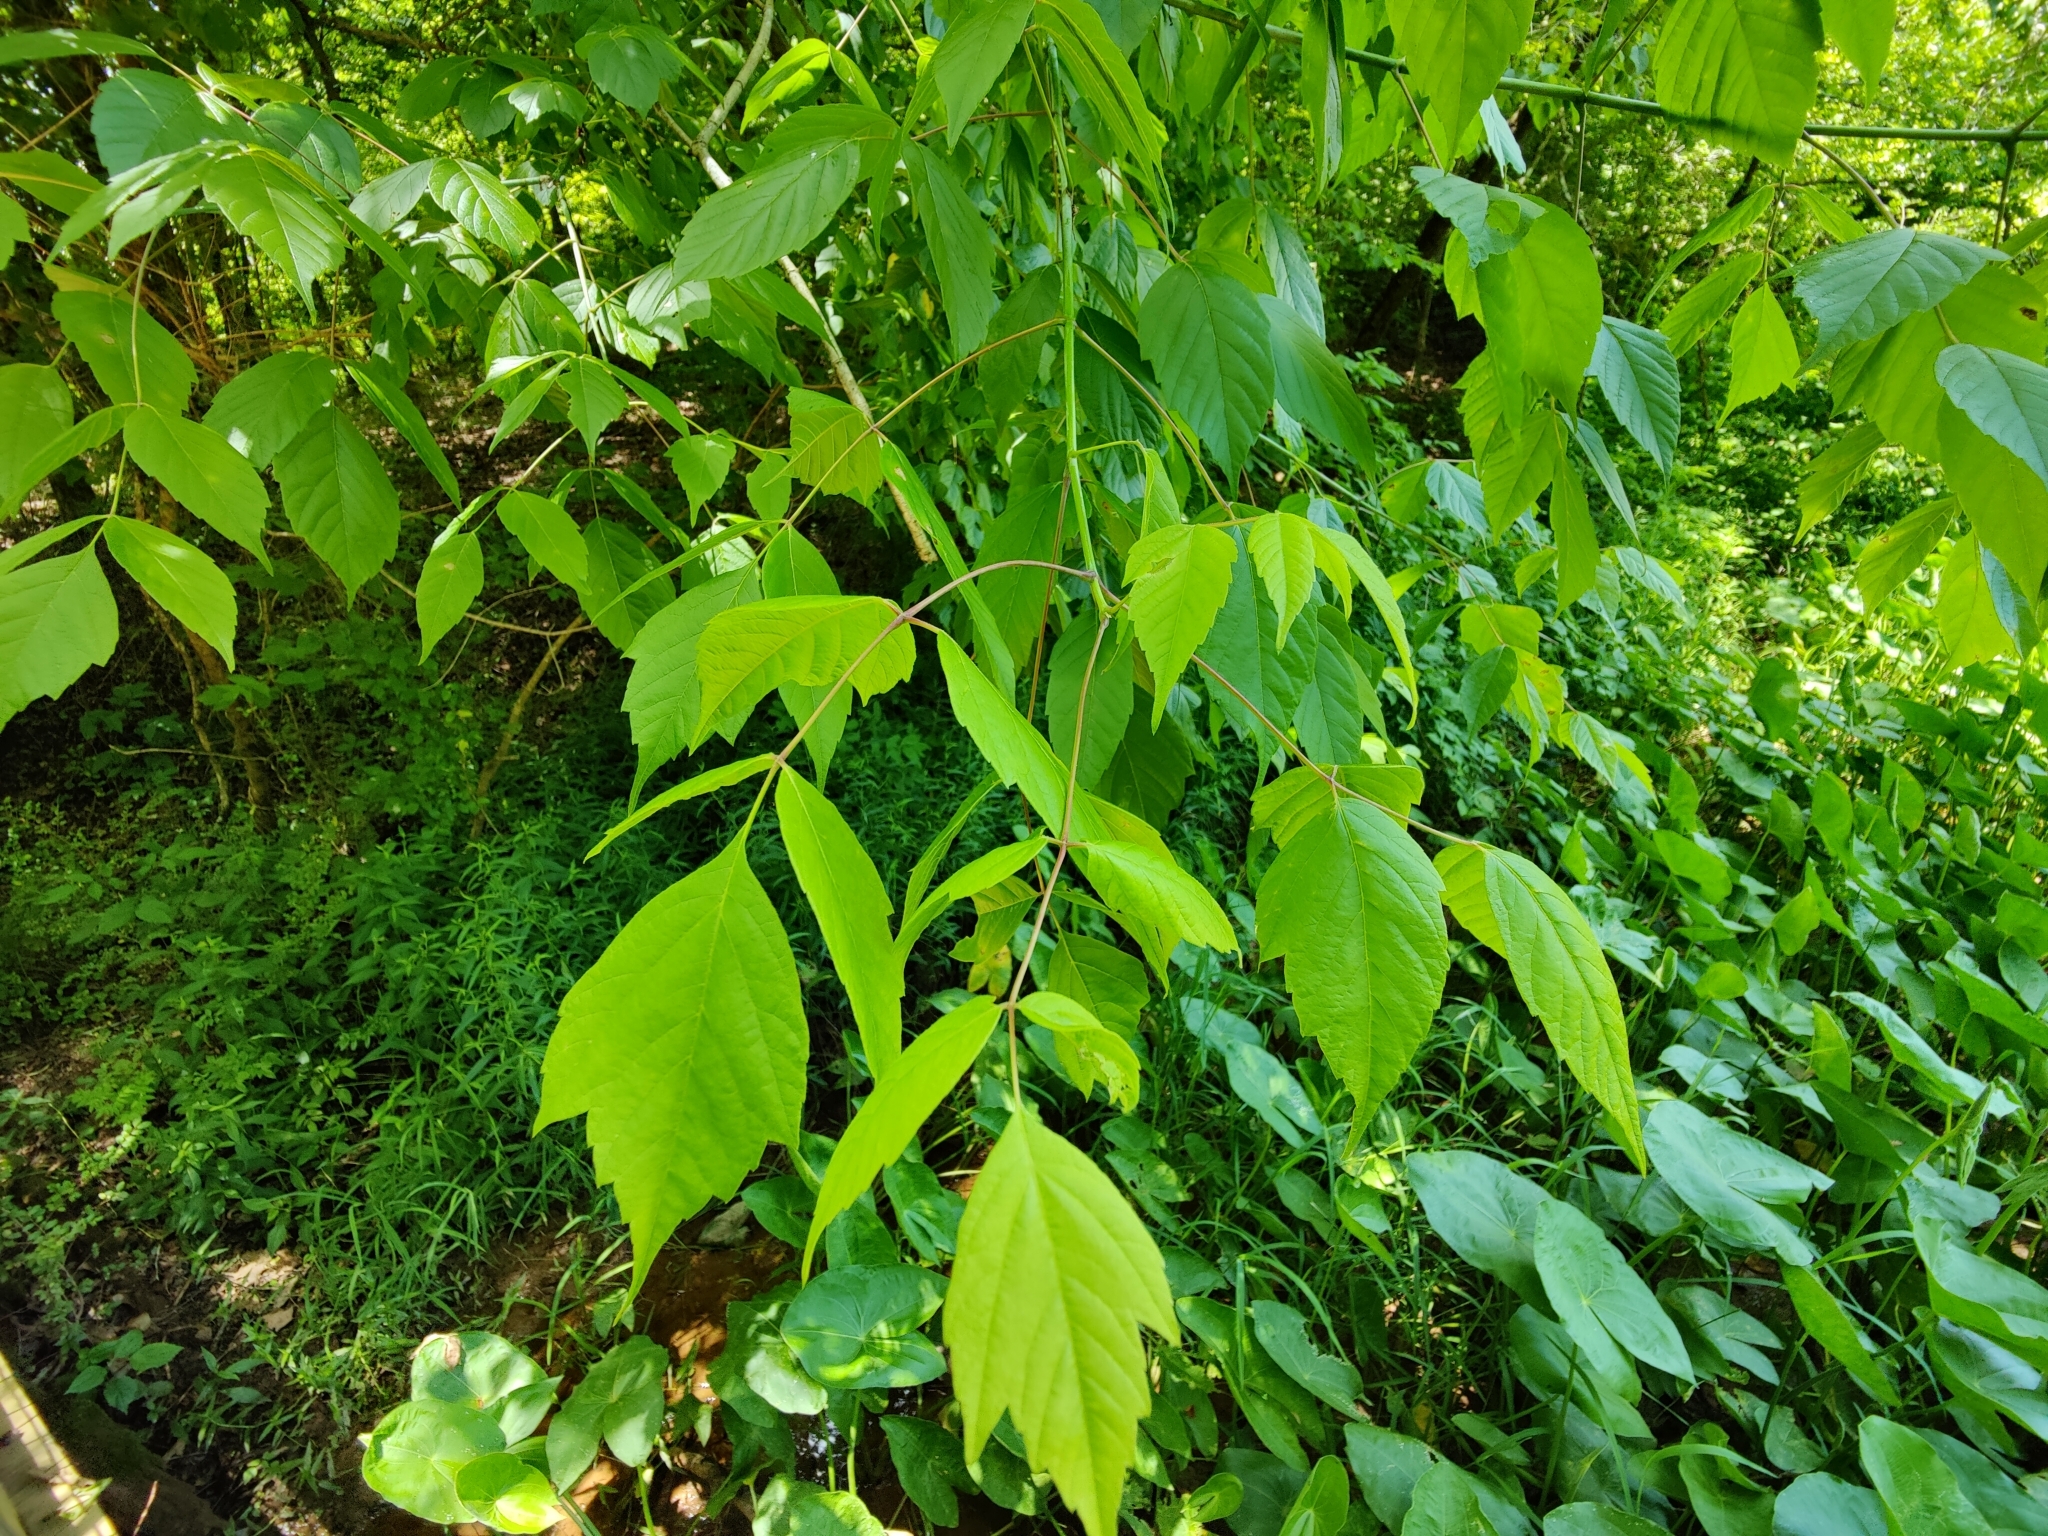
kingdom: Plantae
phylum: Tracheophyta
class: Magnoliopsida
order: Sapindales
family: Sapindaceae
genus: Acer
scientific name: Acer negundo
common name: Ashleaf maple
